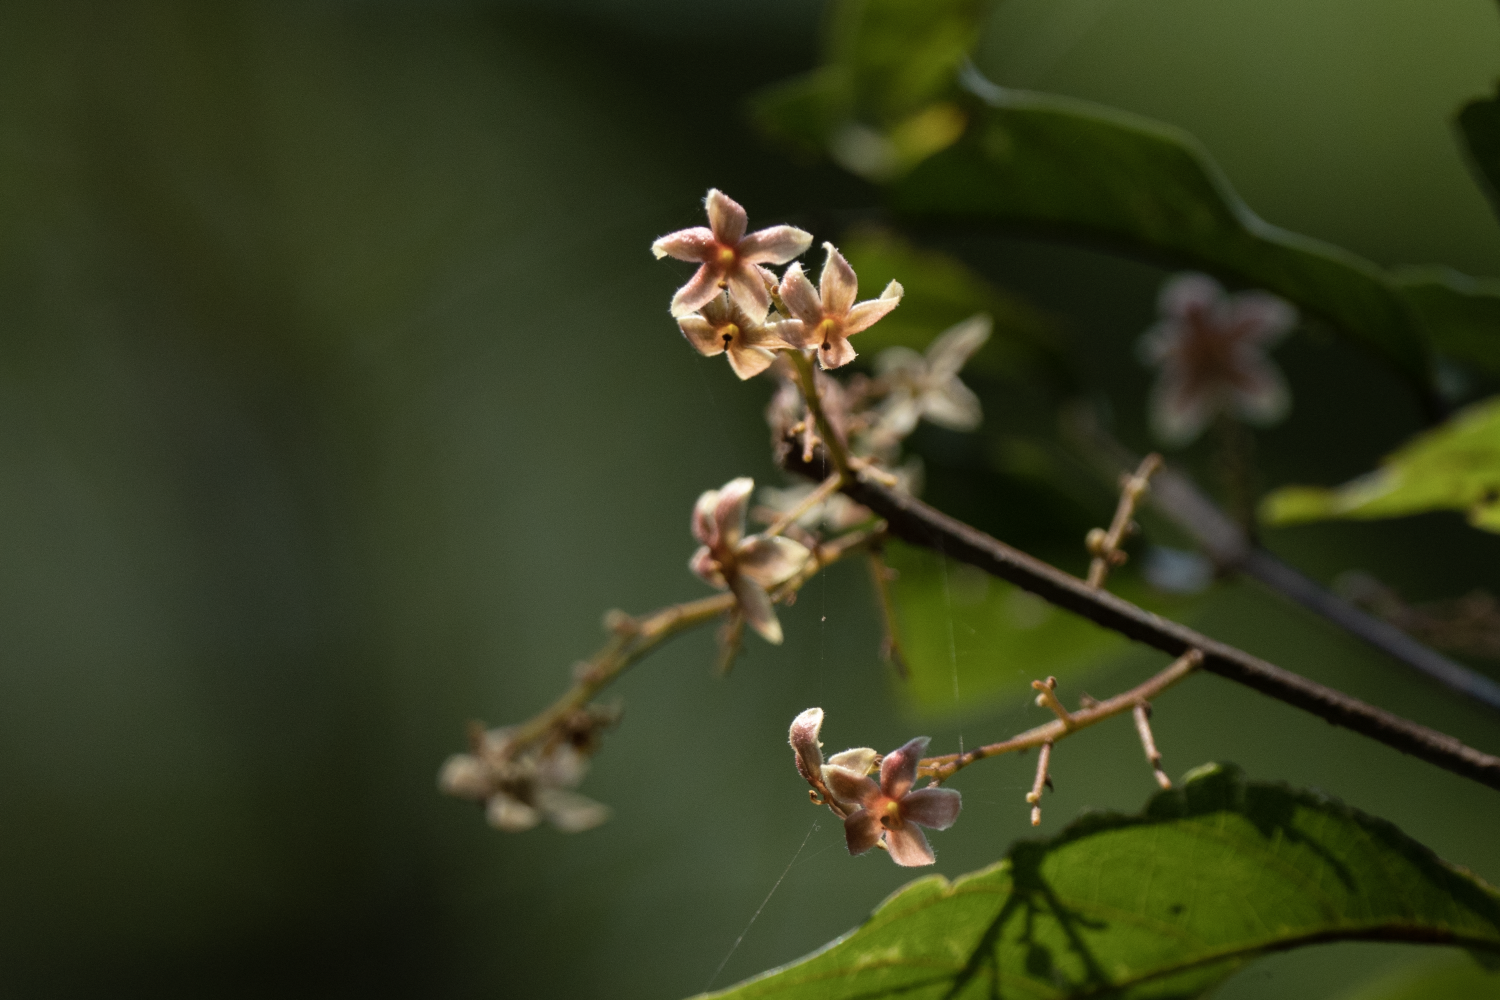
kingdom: Plantae
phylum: Tracheophyta
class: Magnoliopsida
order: Malvales
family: Malvaceae
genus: Sterculia
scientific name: Sterculia lanceolata
